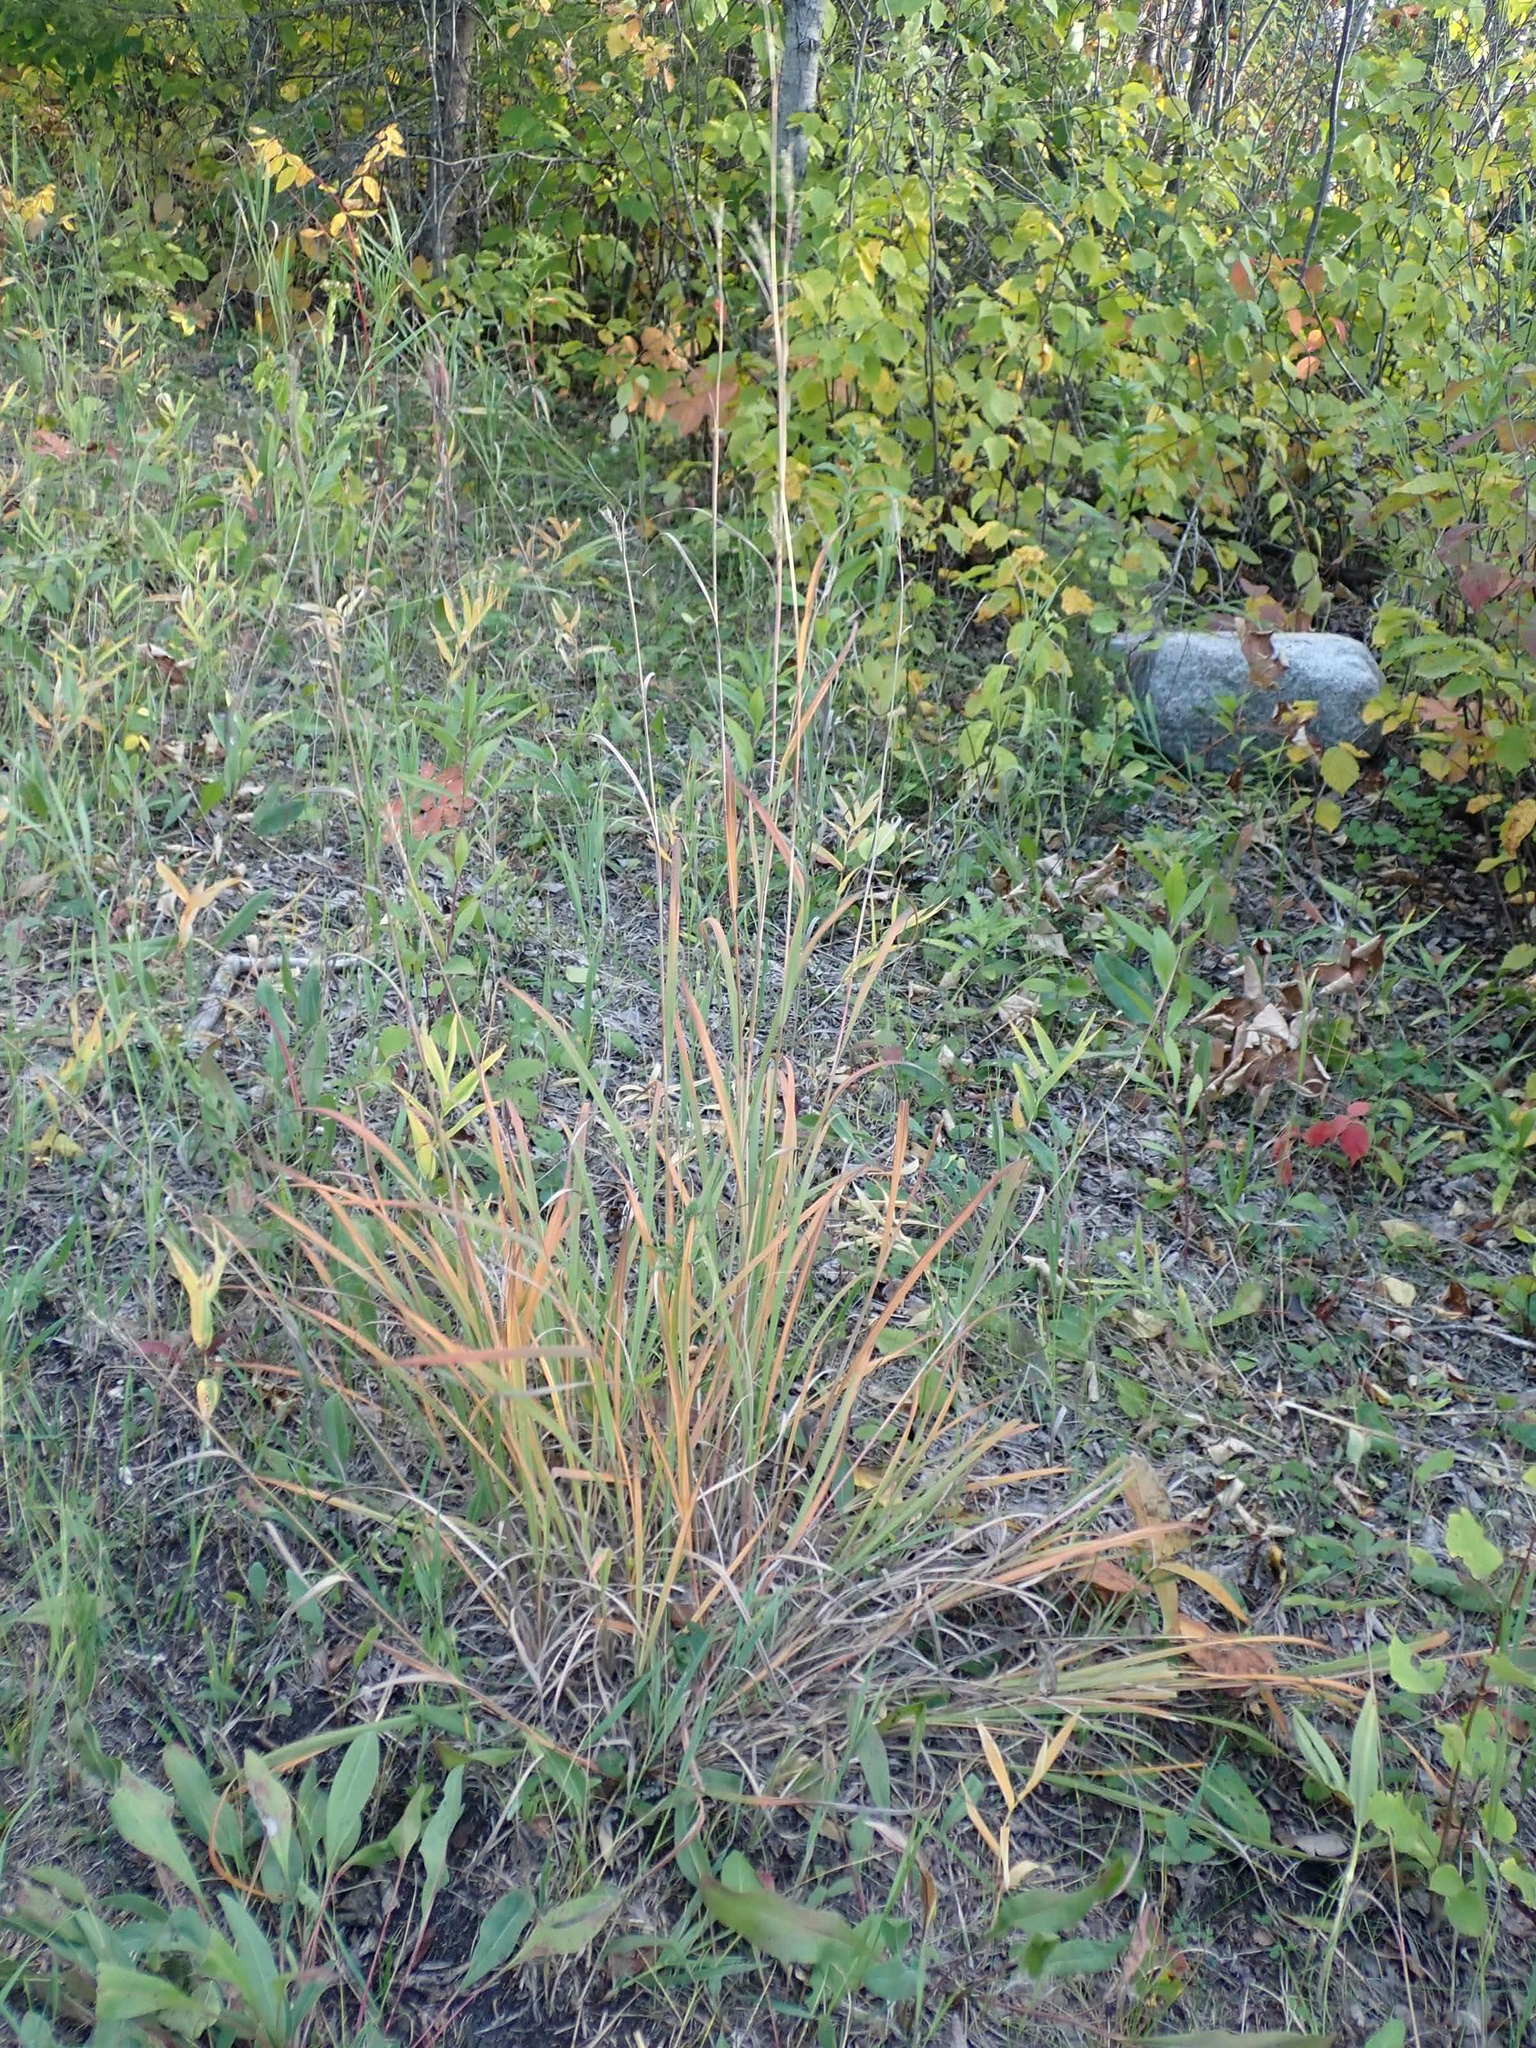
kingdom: Plantae
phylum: Tracheophyta
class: Liliopsida
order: Poales
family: Poaceae
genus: Andropogon
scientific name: Andropogon gerardi
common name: Big bluestem
